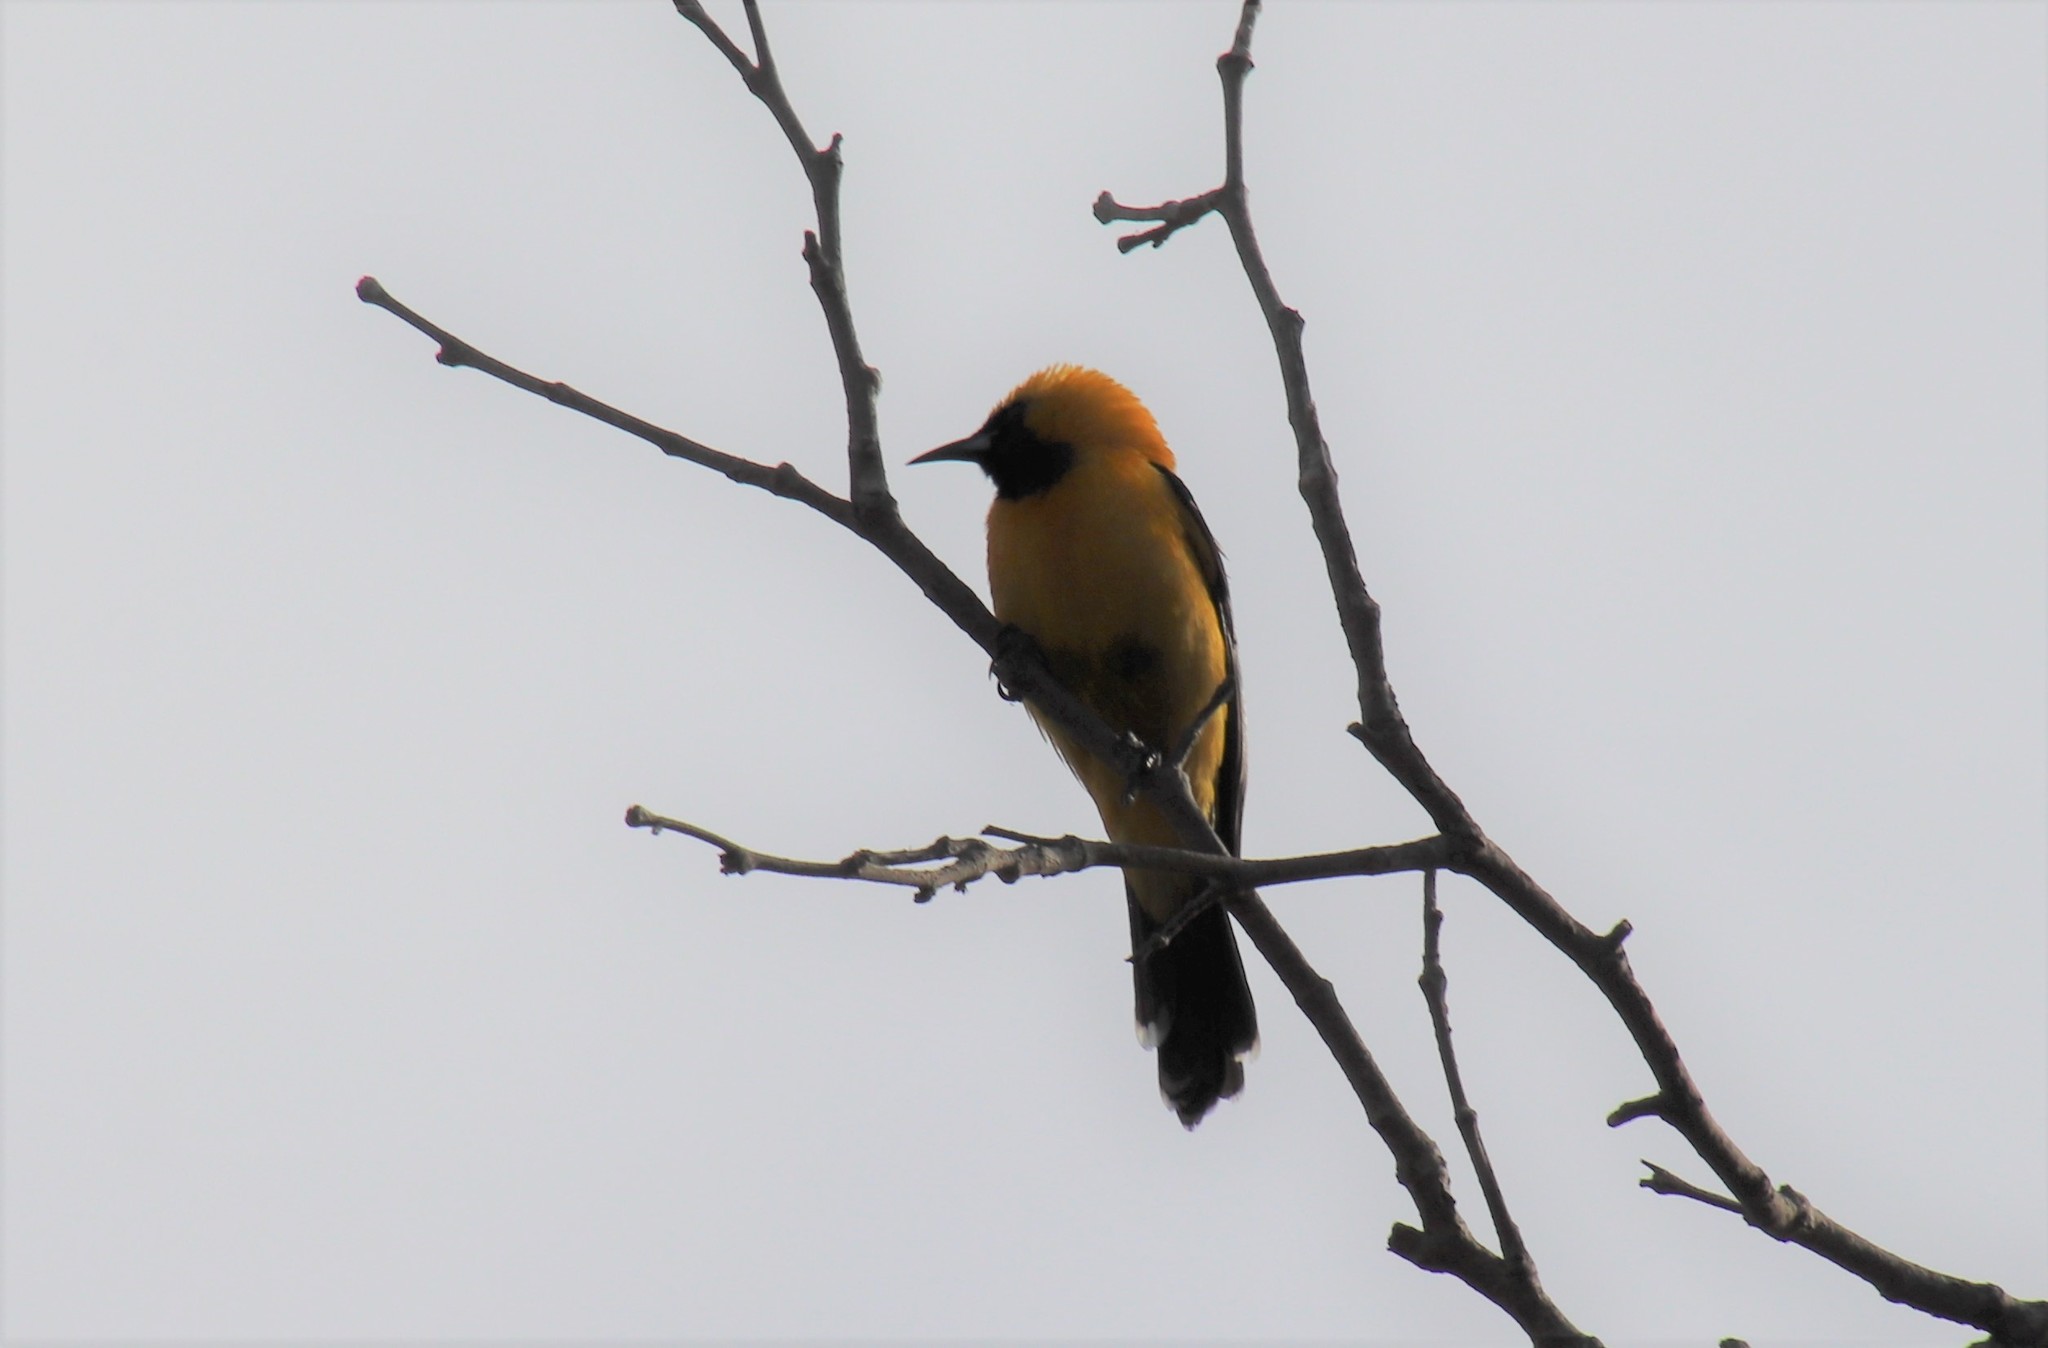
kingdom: Animalia
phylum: Chordata
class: Aves
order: Passeriformes
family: Icteridae
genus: Icterus
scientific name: Icterus cucullatus
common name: Hooded oriole
